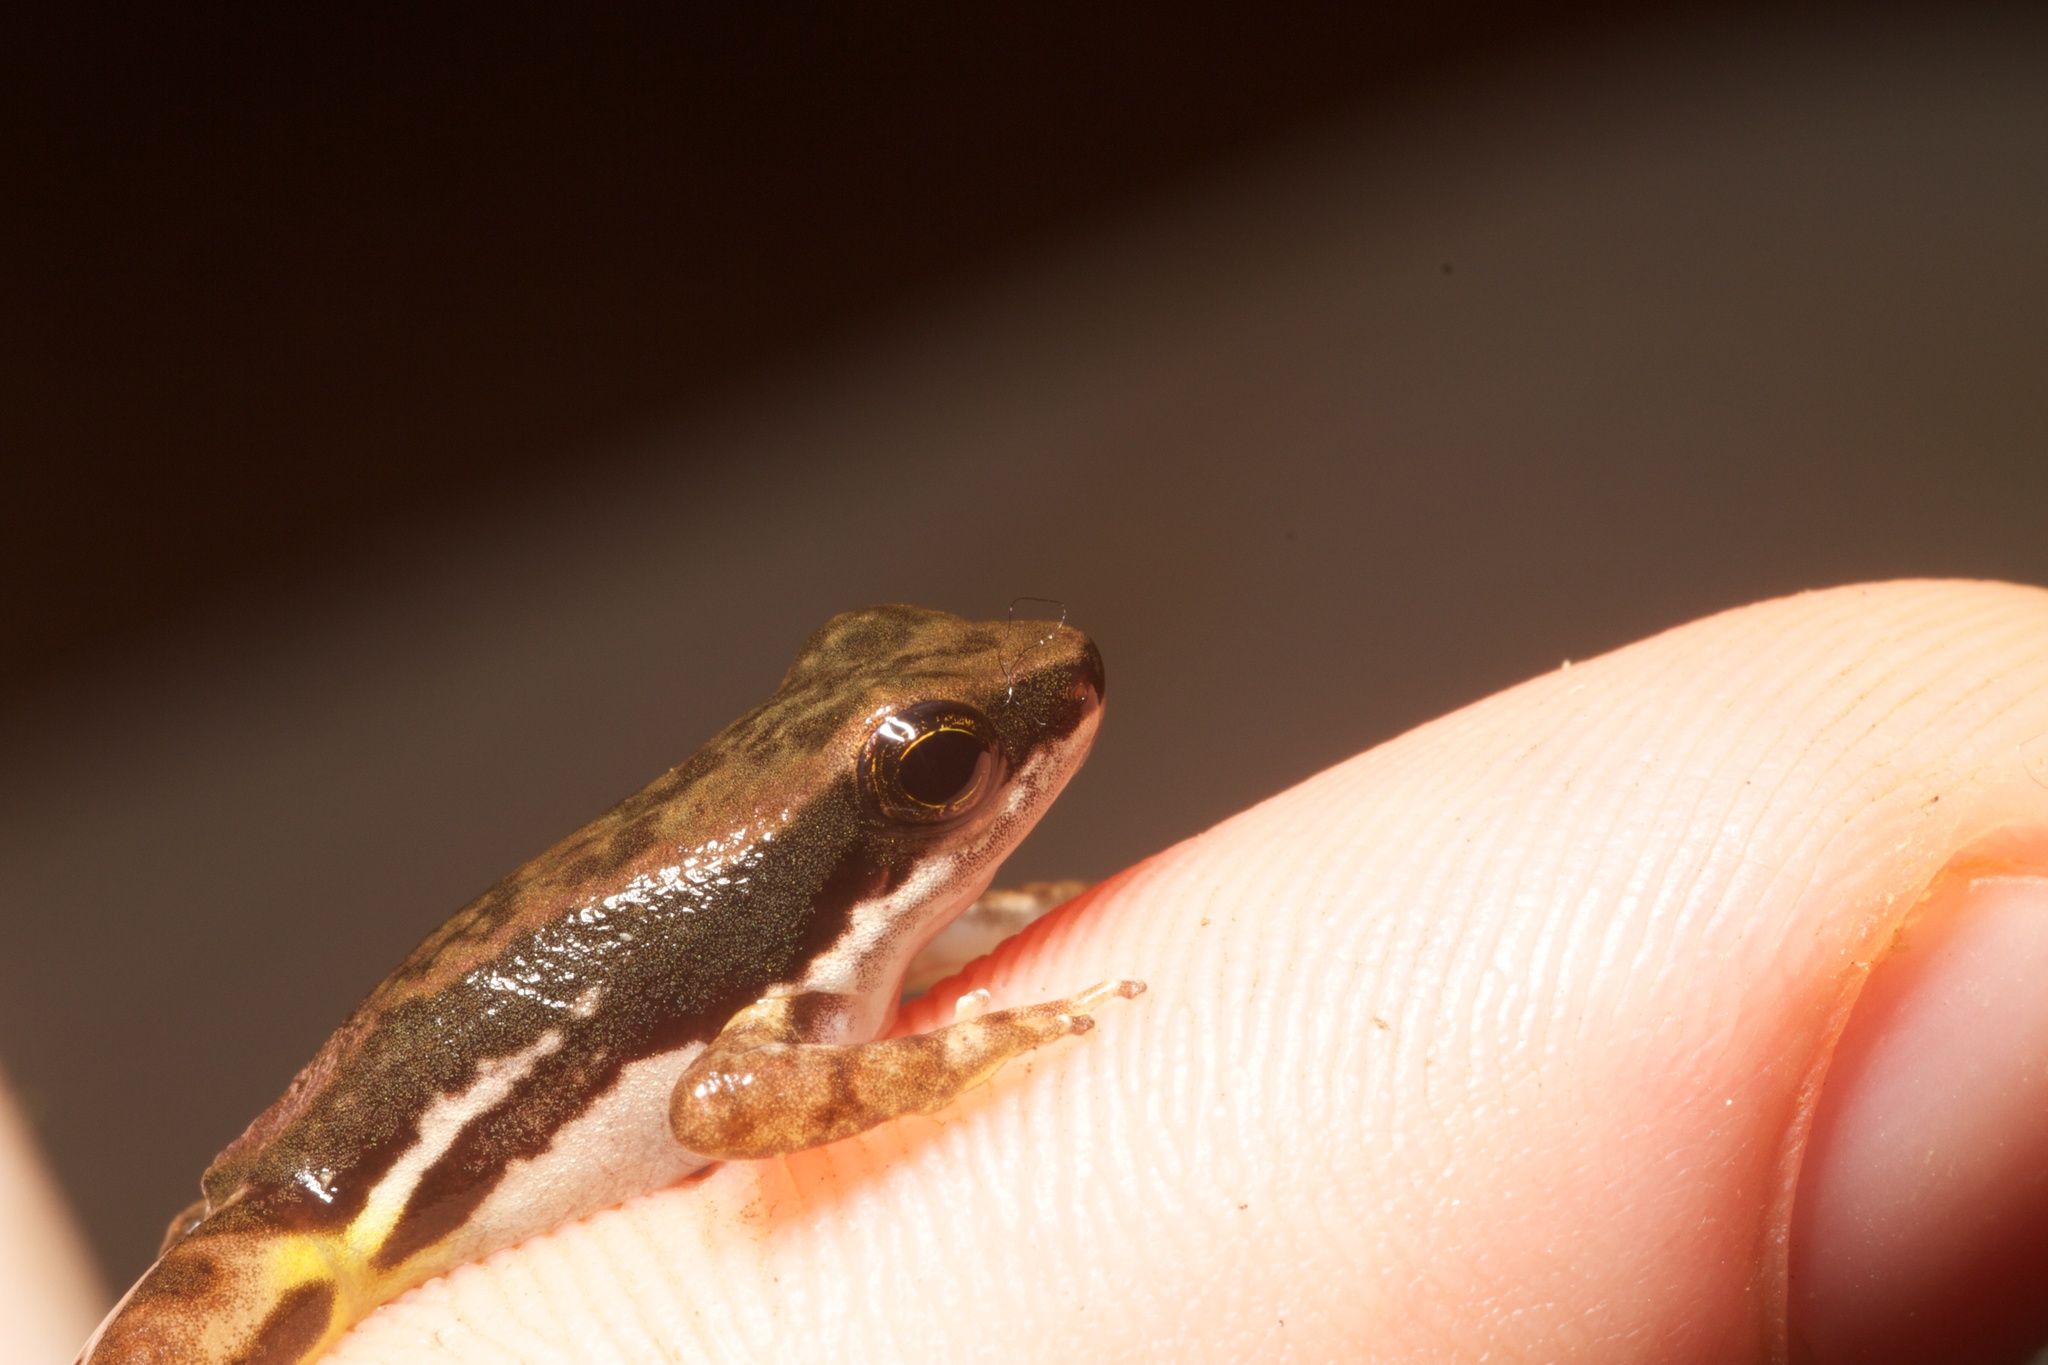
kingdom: Animalia
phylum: Chordata
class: Amphibia
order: Anura
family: Dendrobatidae
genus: Colostethus
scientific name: Colostethus panamansis
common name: Panama rocket frog
